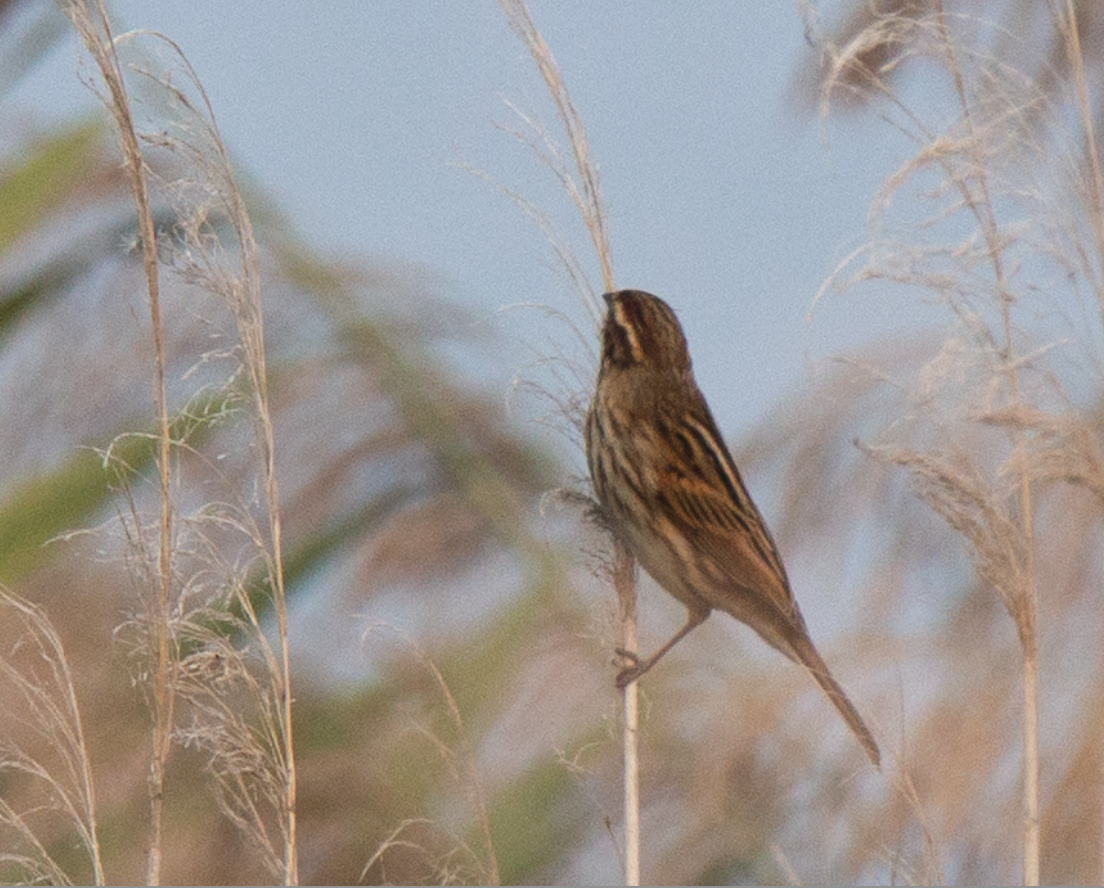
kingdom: Animalia
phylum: Chordata
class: Aves
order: Passeriformes
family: Emberizidae
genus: Emberiza
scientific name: Emberiza schoeniclus
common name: Reed bunting
